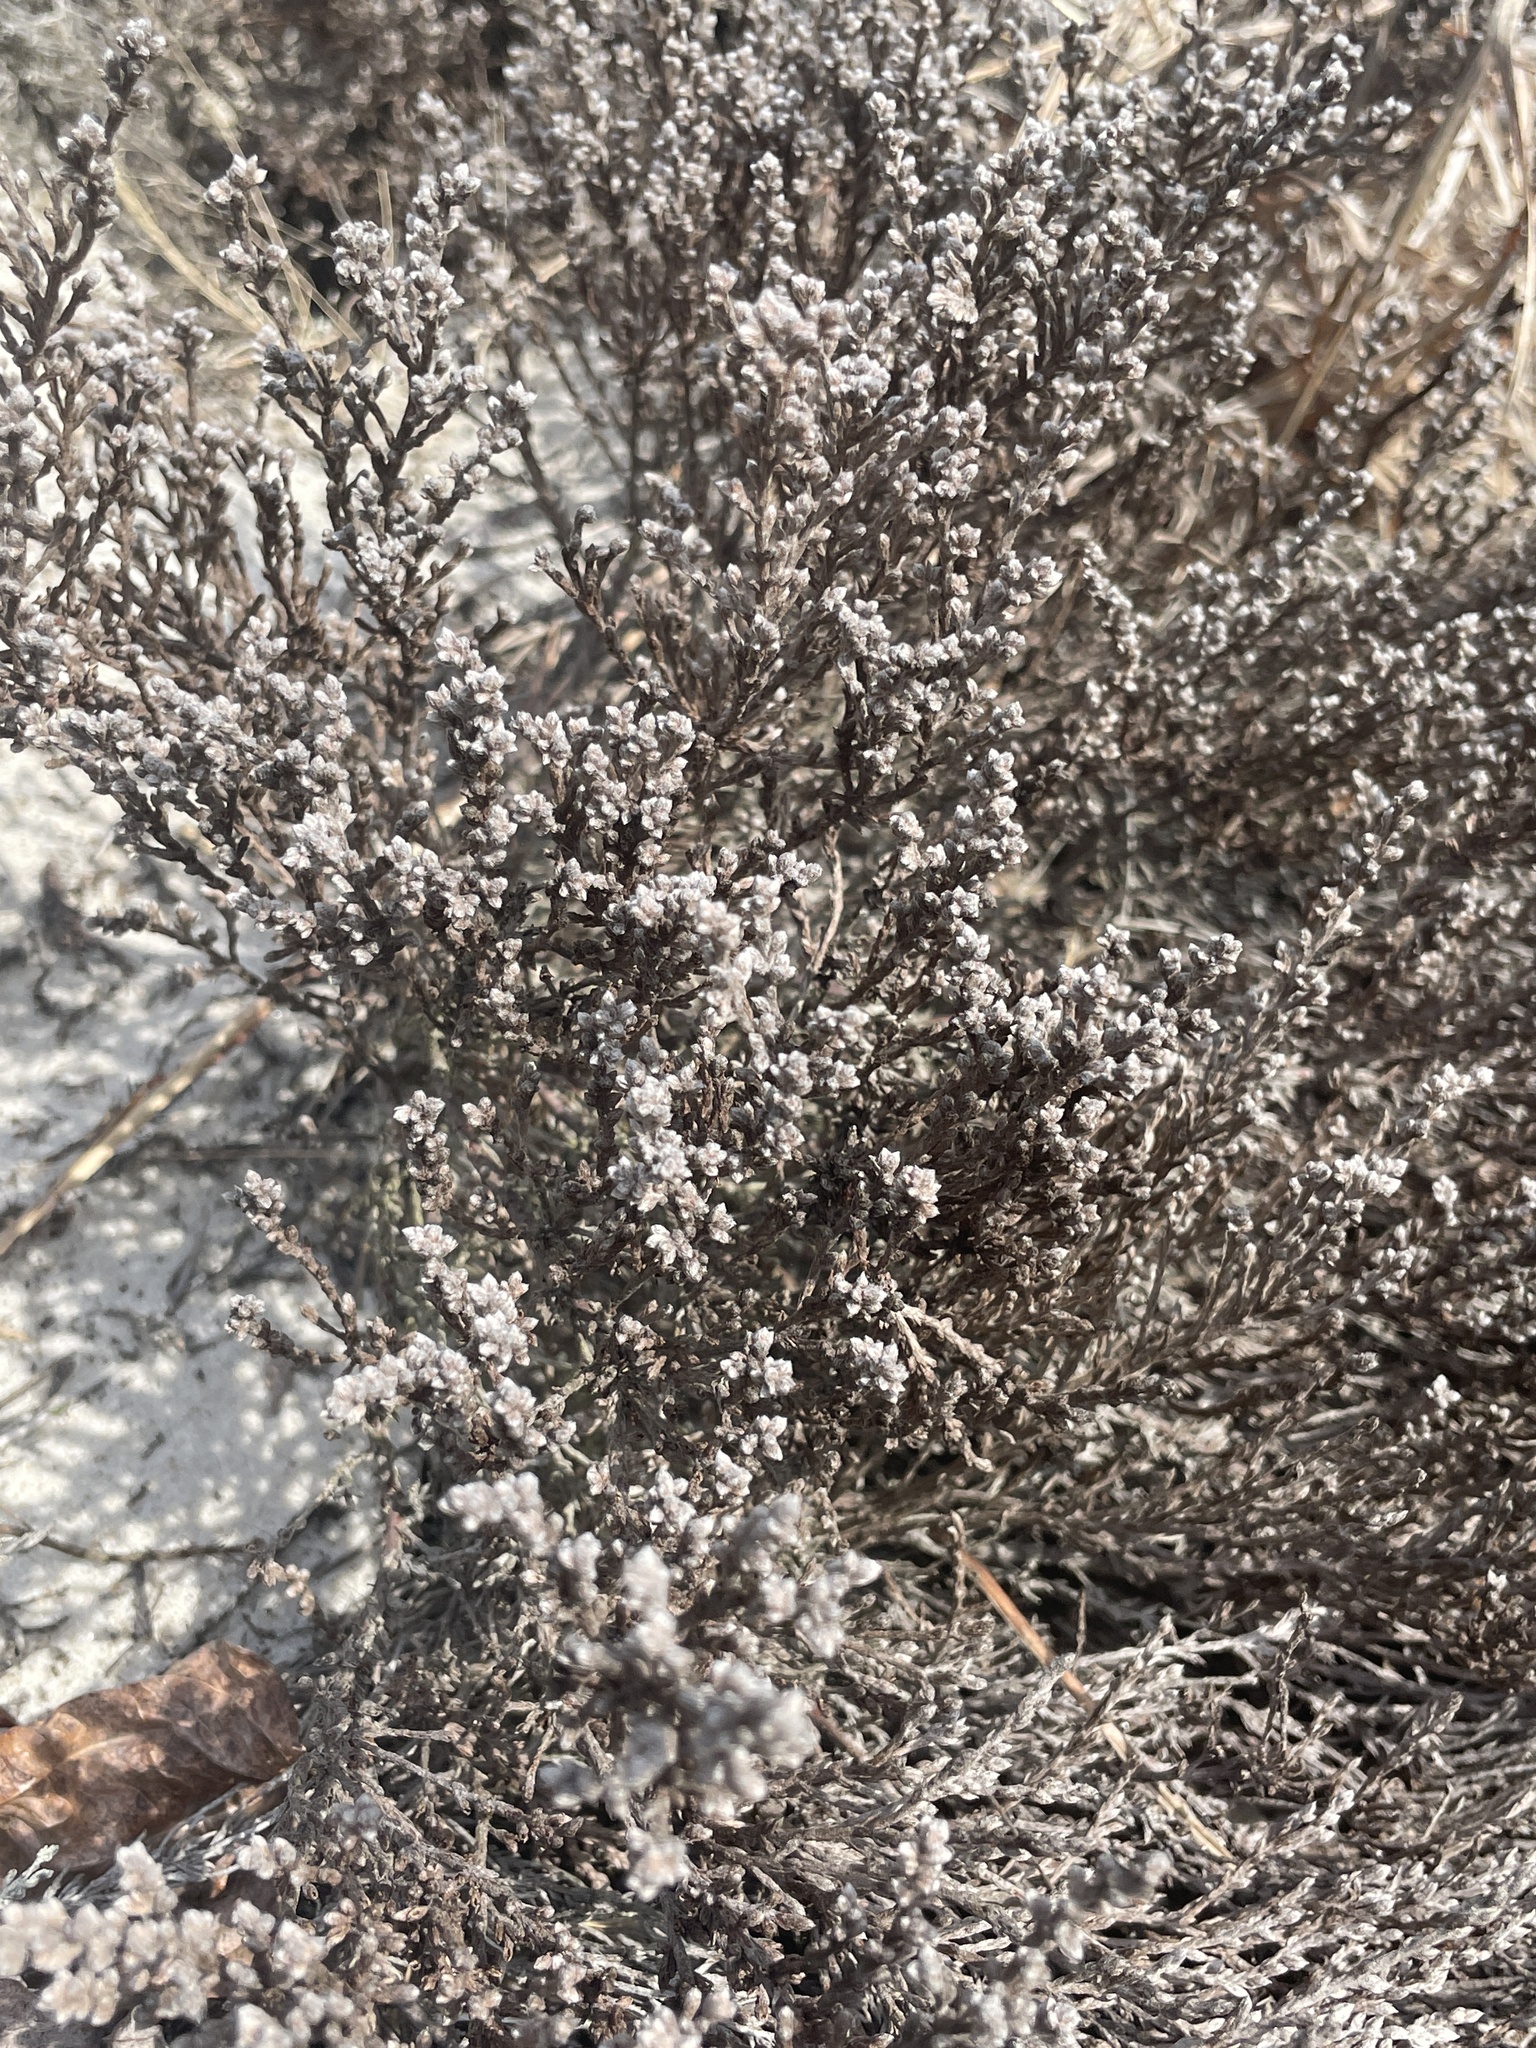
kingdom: Plantae
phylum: Tracheophyta
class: Magnoliopsida
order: Malvales
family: Cistaceae
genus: Hudsonia
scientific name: Hudsonia tomentosa
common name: Beach-heath
